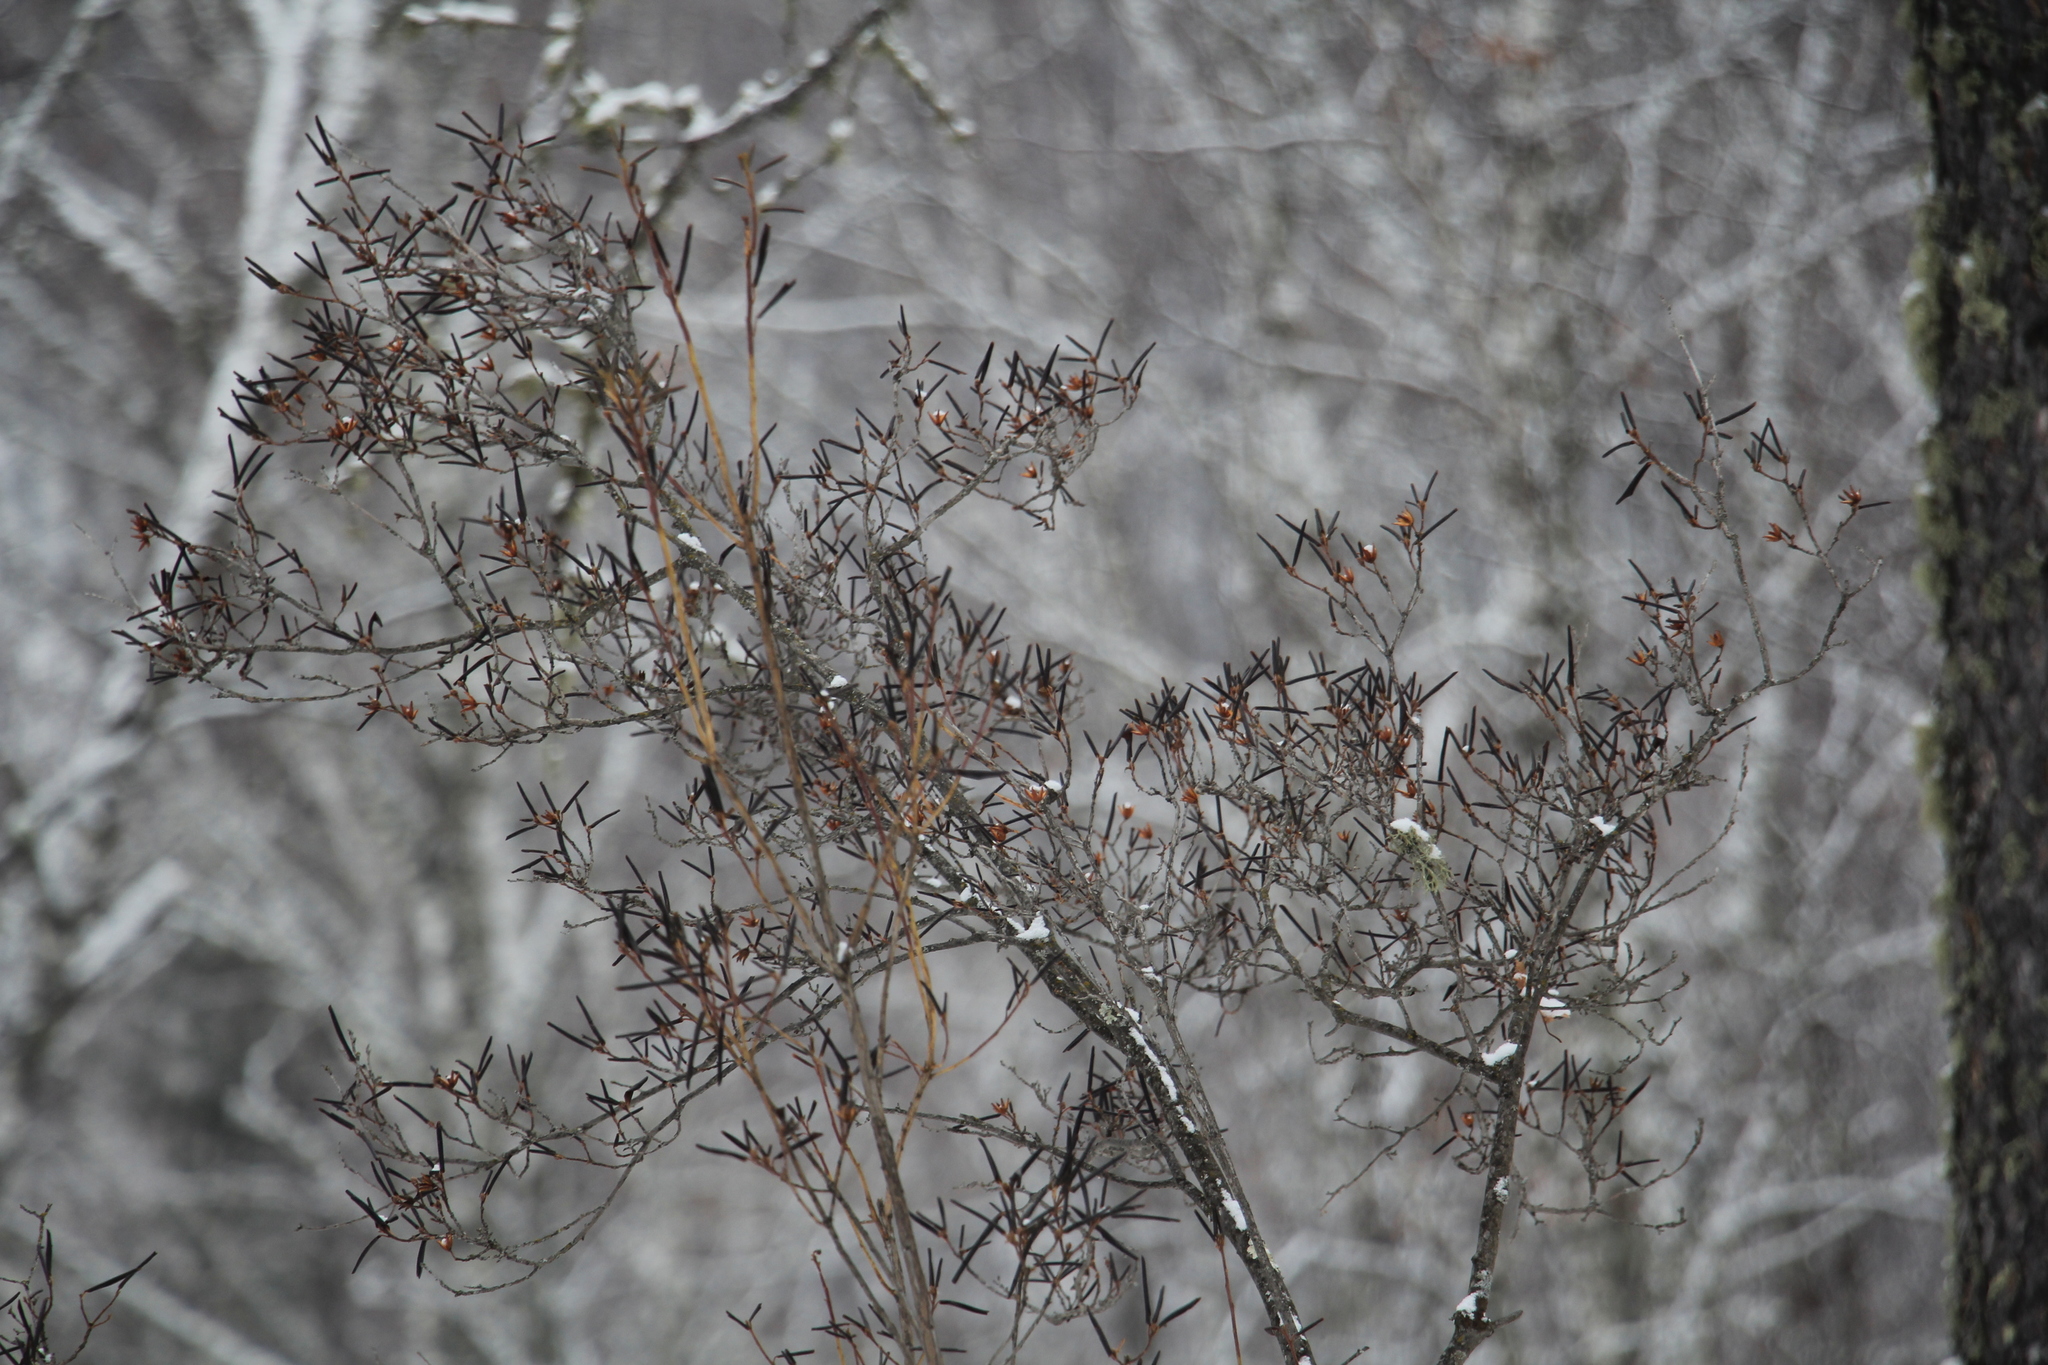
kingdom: Plantae
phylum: Tracheophyta
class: Magnoliopsida
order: Ericales
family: Ericaceae
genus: Rhododendron
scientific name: Rhododendron dauricum
